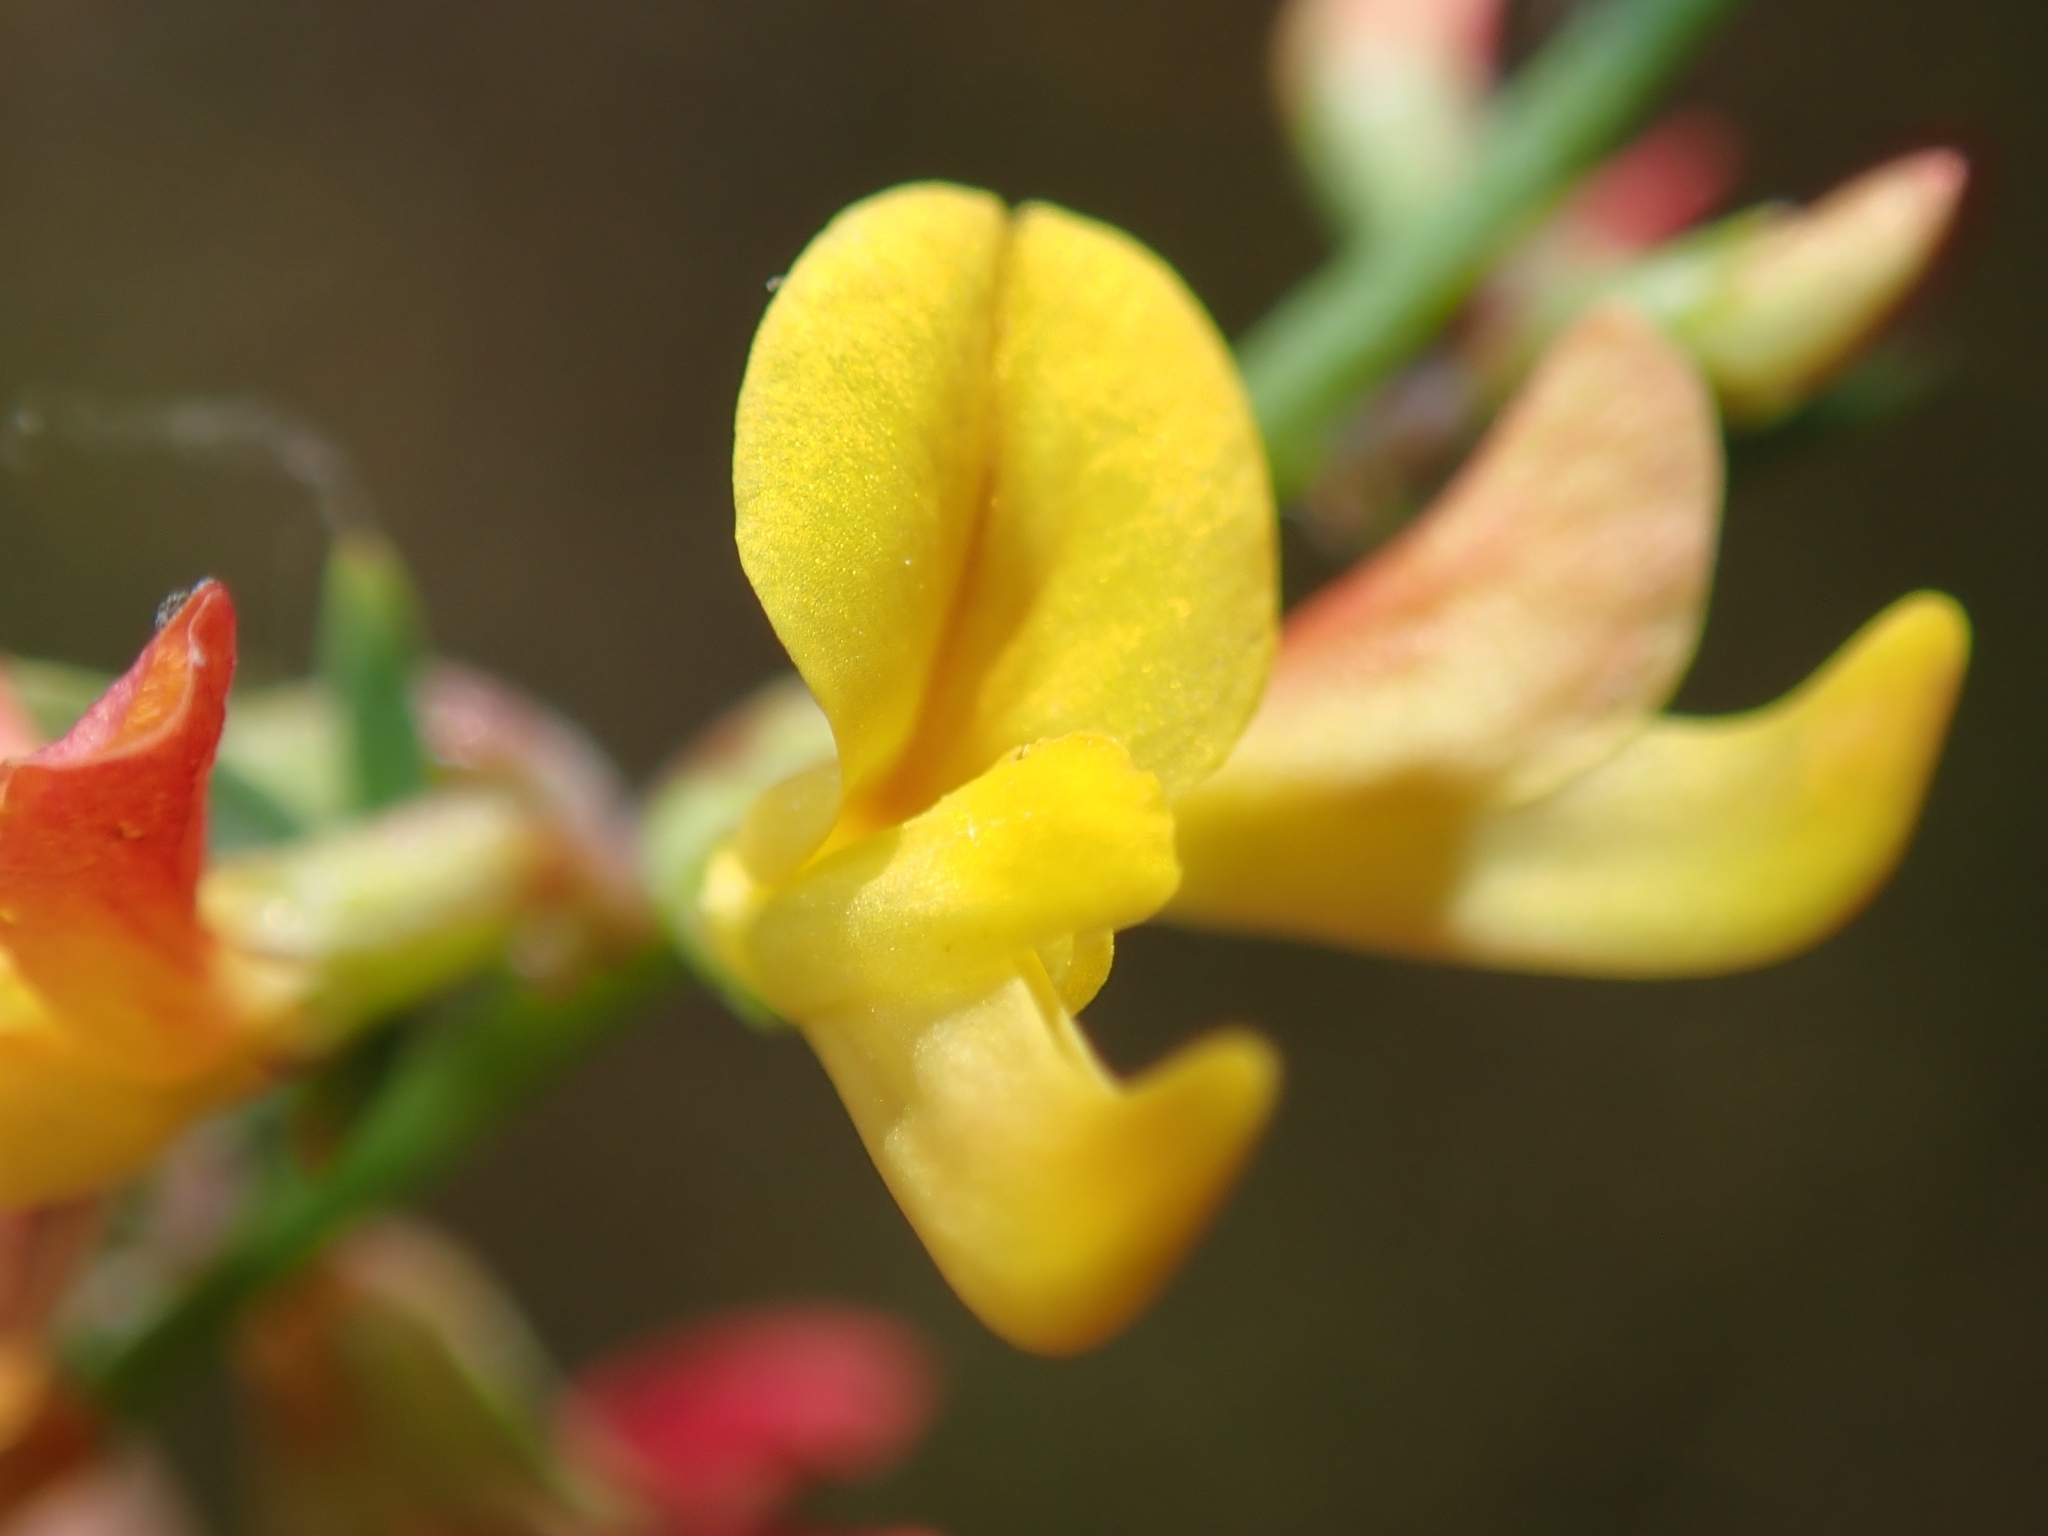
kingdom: Plantae
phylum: Tracheophyta
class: Magnoliopsida
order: Fabales
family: Fabaceae
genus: Acmispon
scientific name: Acmispon glaber
